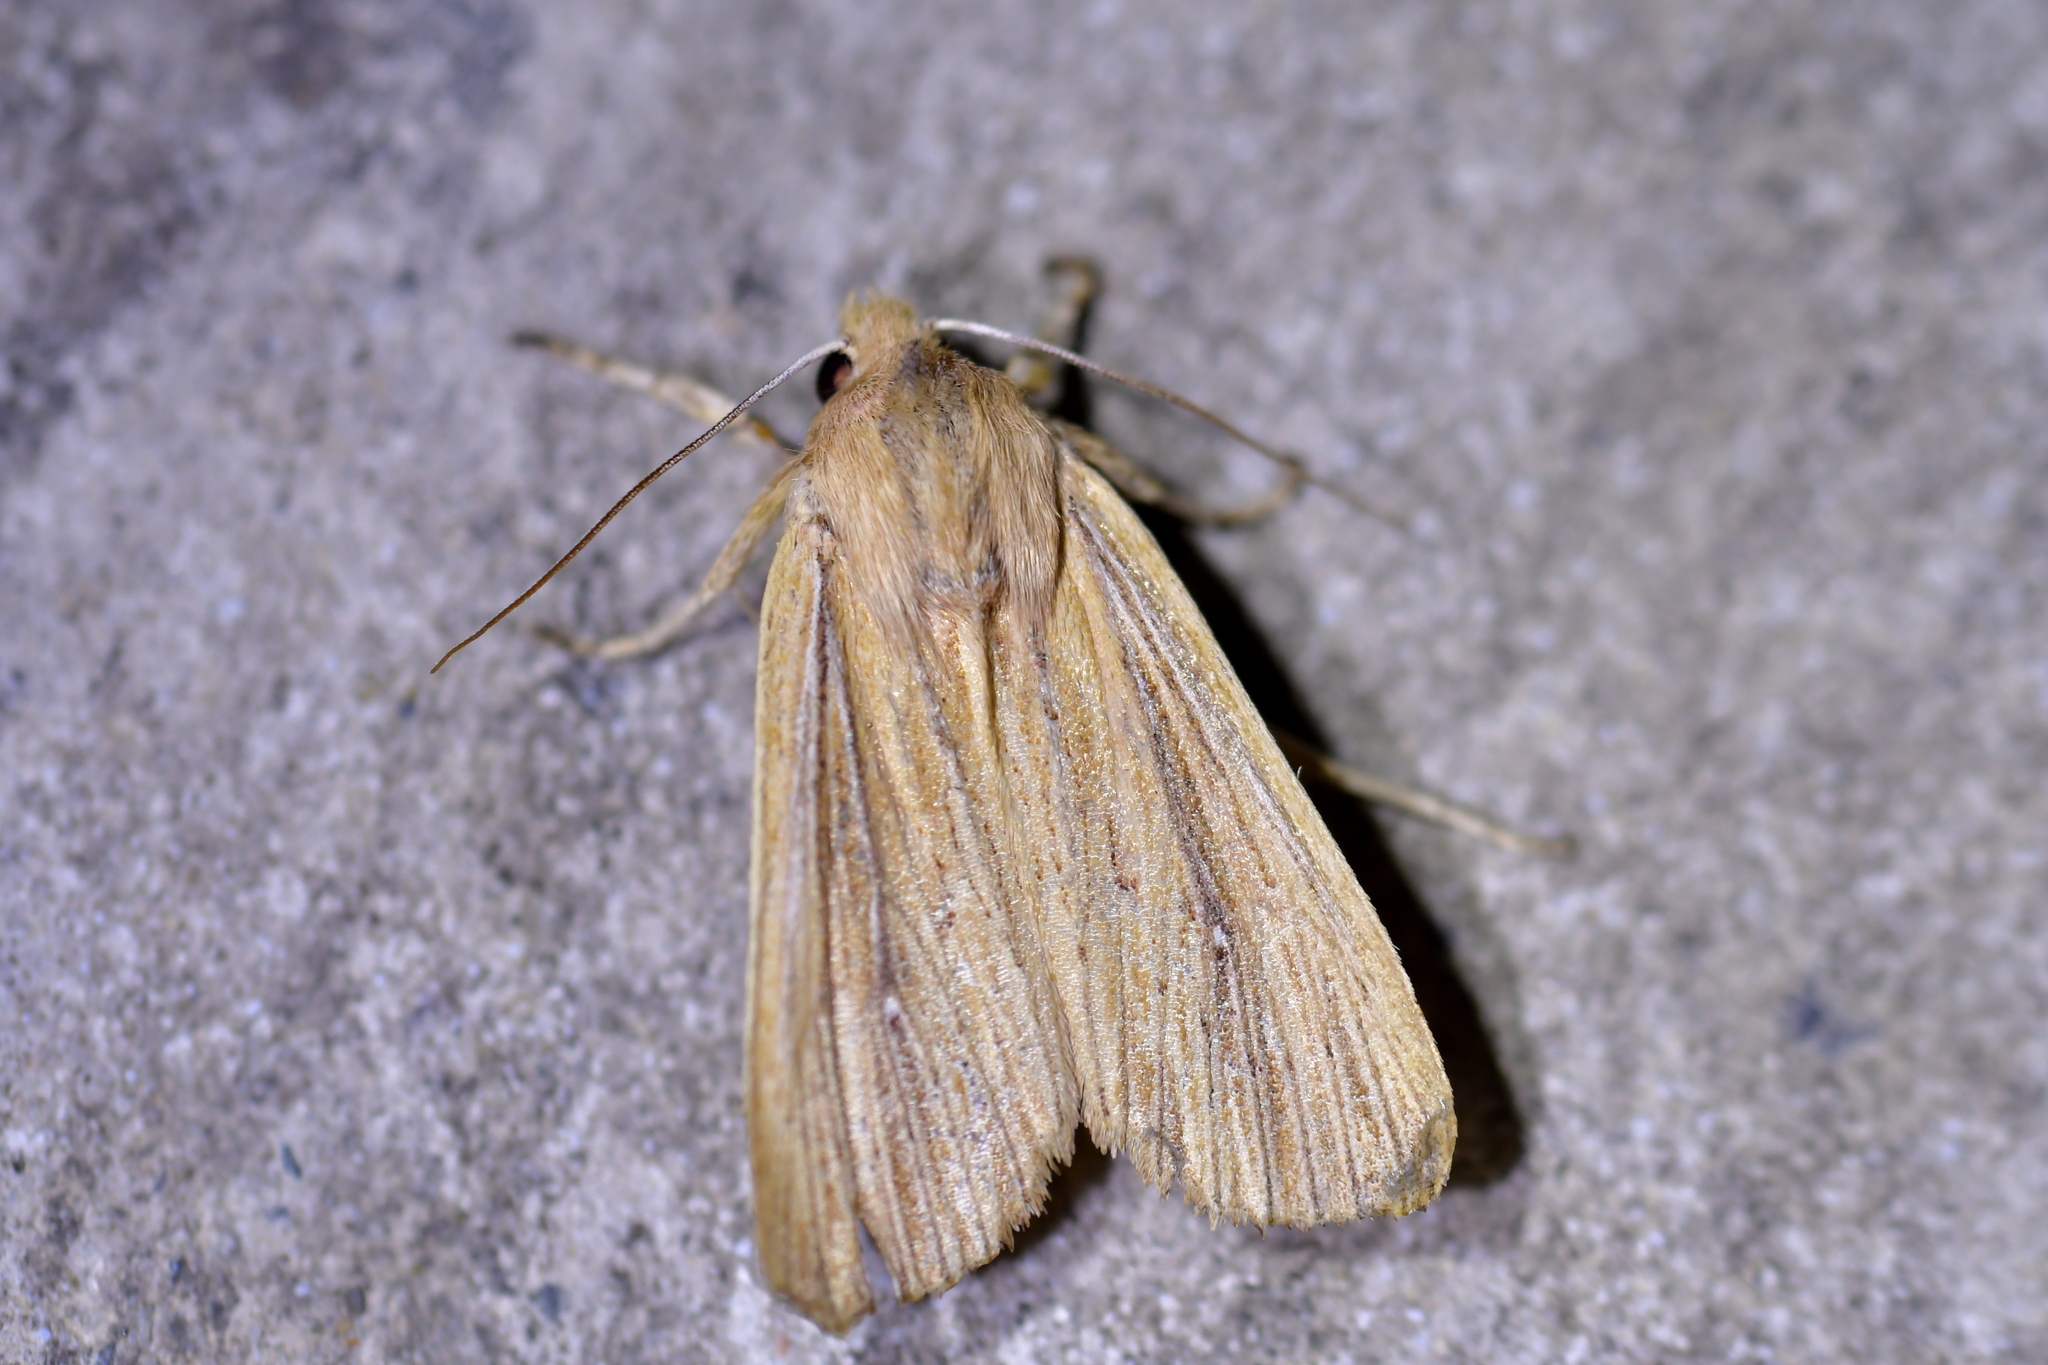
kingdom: Animalia
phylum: Arthropoda
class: Insecta
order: Lepidoptera
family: Noctuidae
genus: Ichneutica
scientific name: Ichneutica arotis
